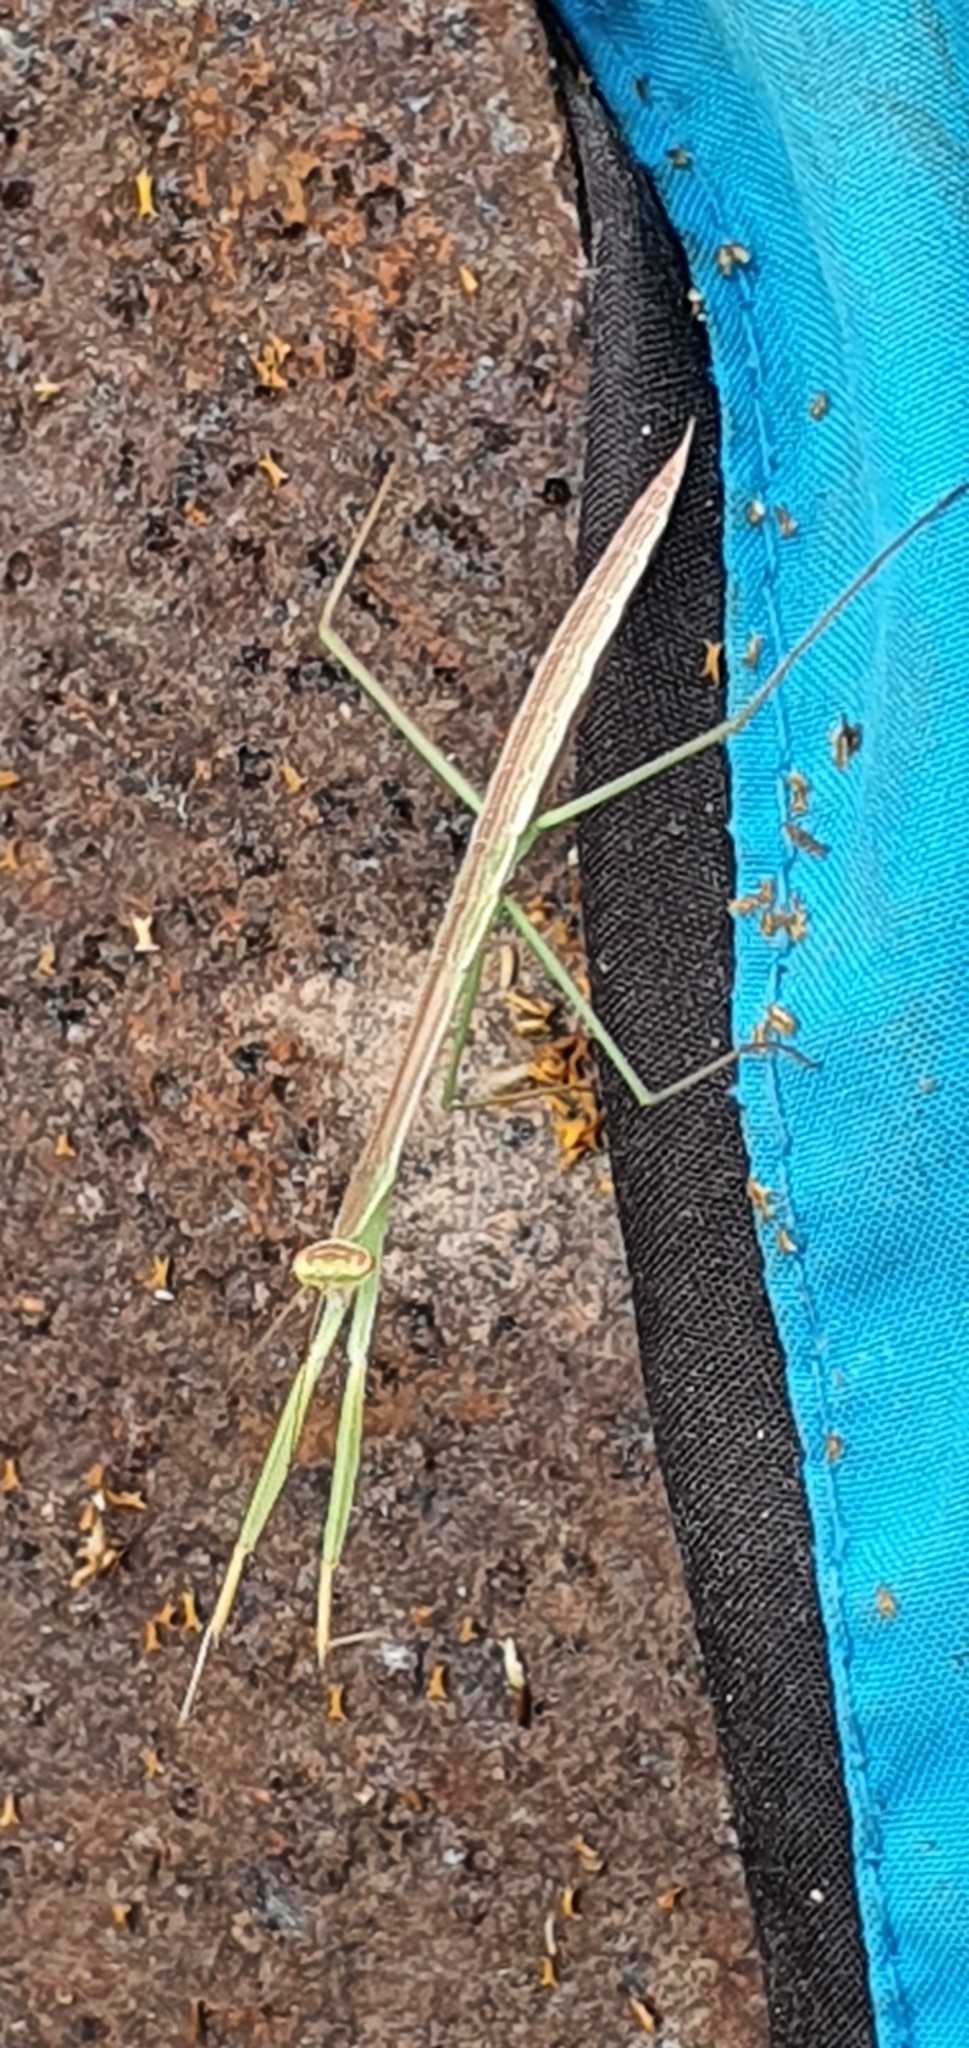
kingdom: Animalia
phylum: Arthropoda
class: Insecta
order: Mantodea
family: Mantidae
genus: Tenodera
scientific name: Tenodera australasiae
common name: Purple-winged mantis
